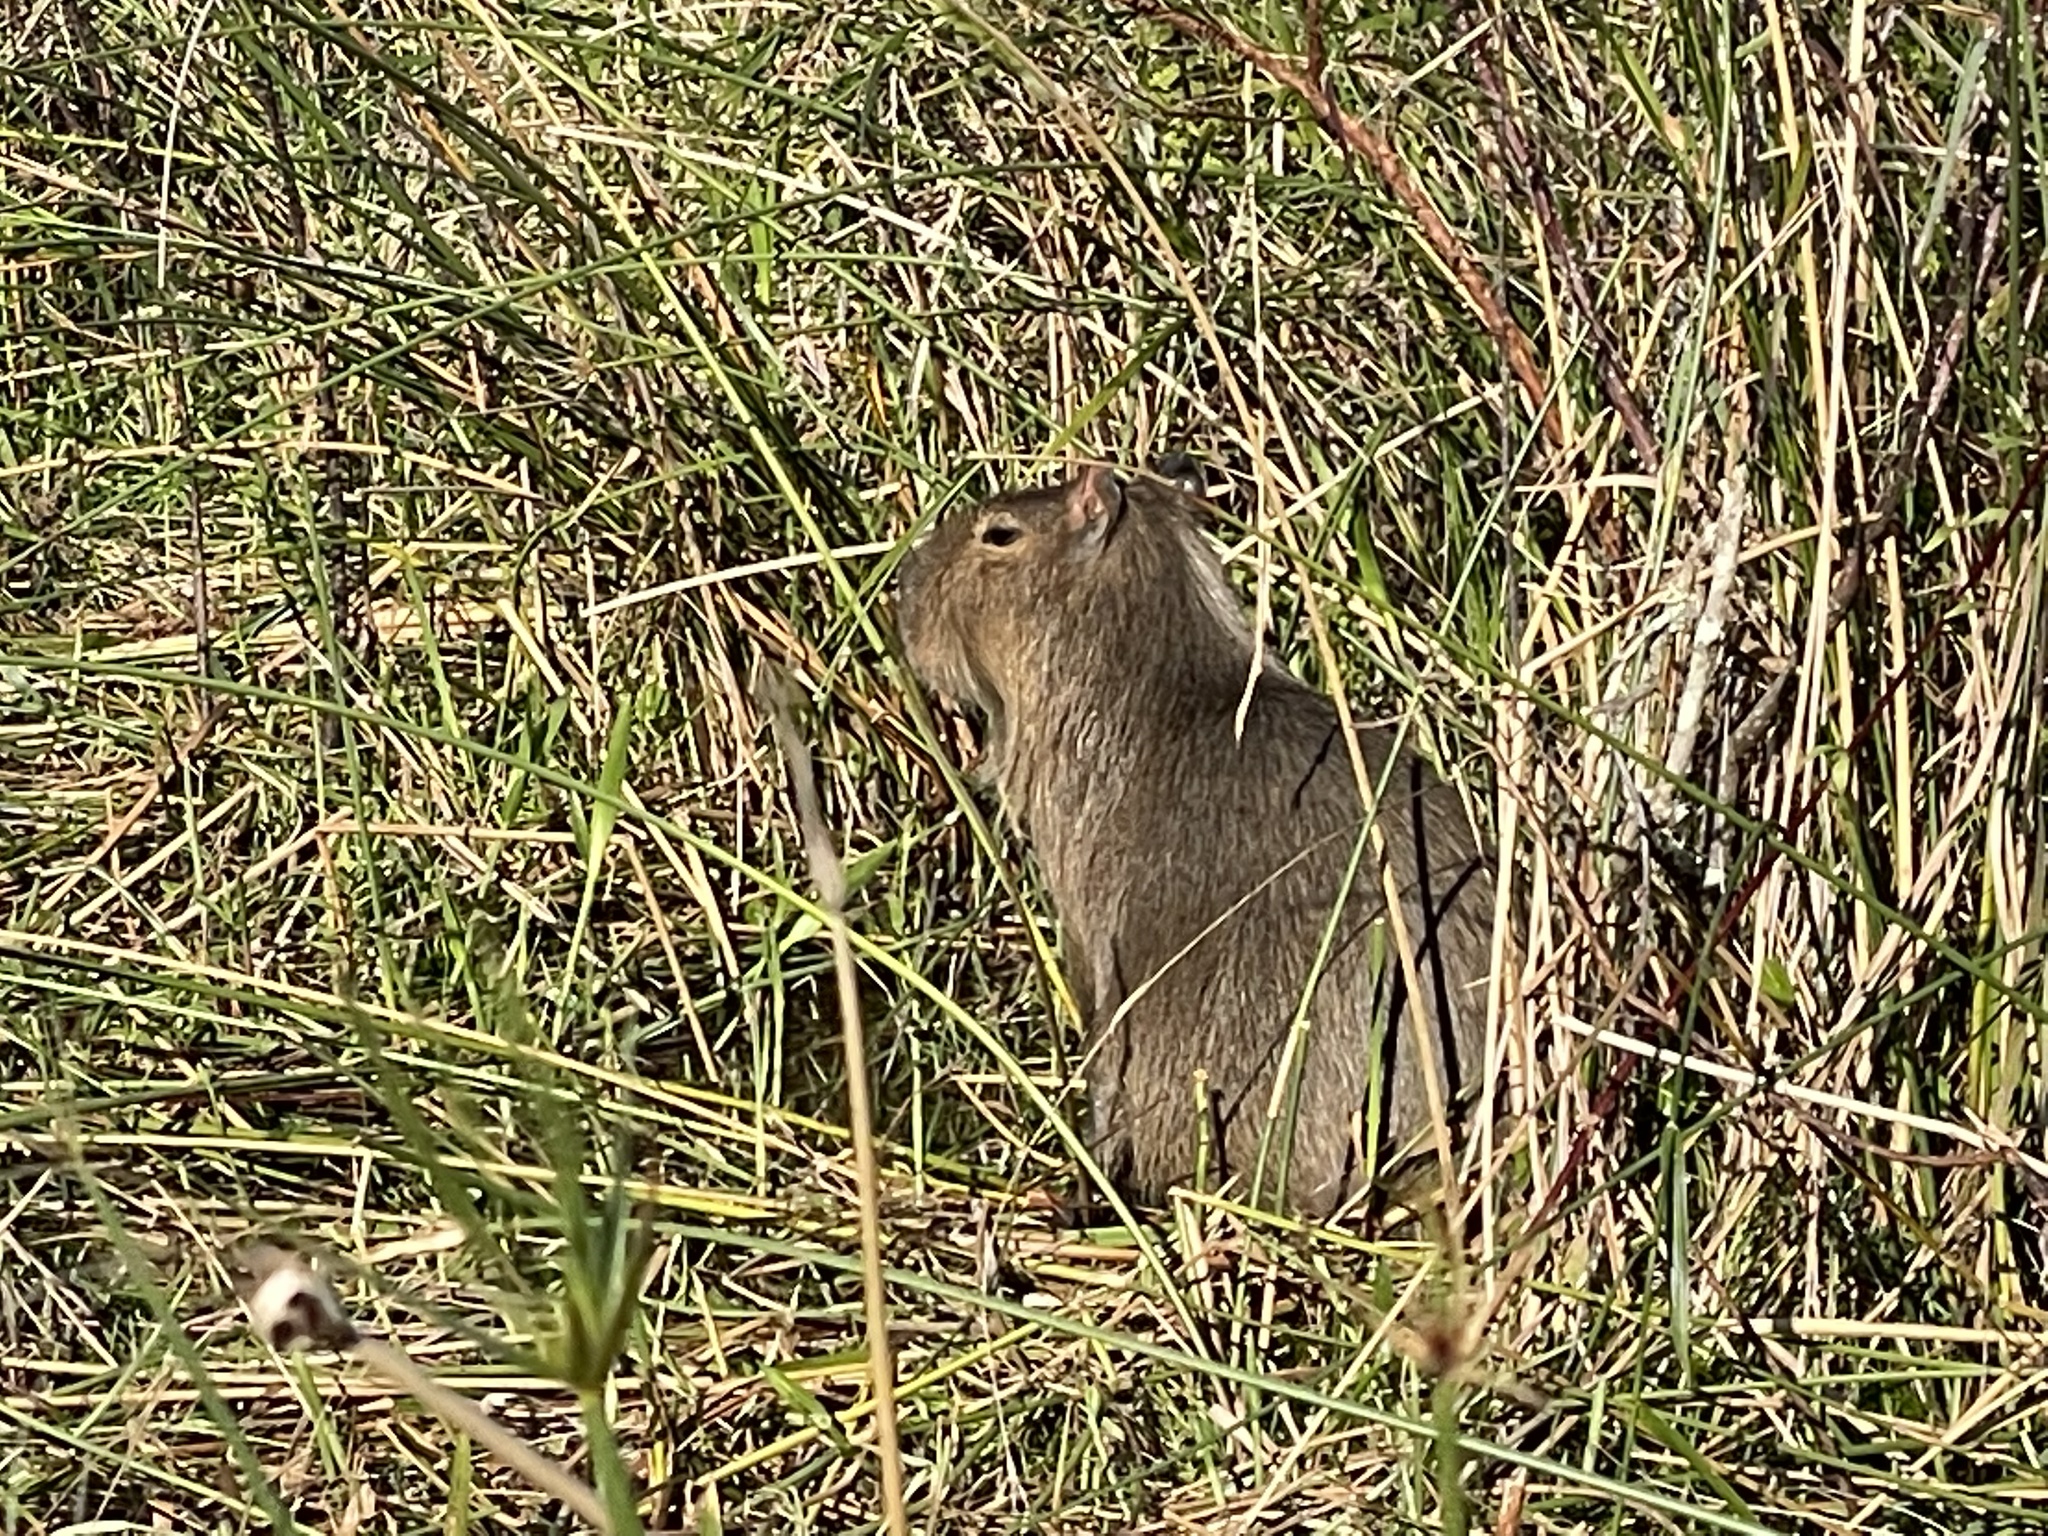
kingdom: Animalia
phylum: Chordata
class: Mammalia
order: Rodentia
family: Caviidae
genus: Hydrochoerus
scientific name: Hydrochoerus hydrochaeris
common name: Capybara
